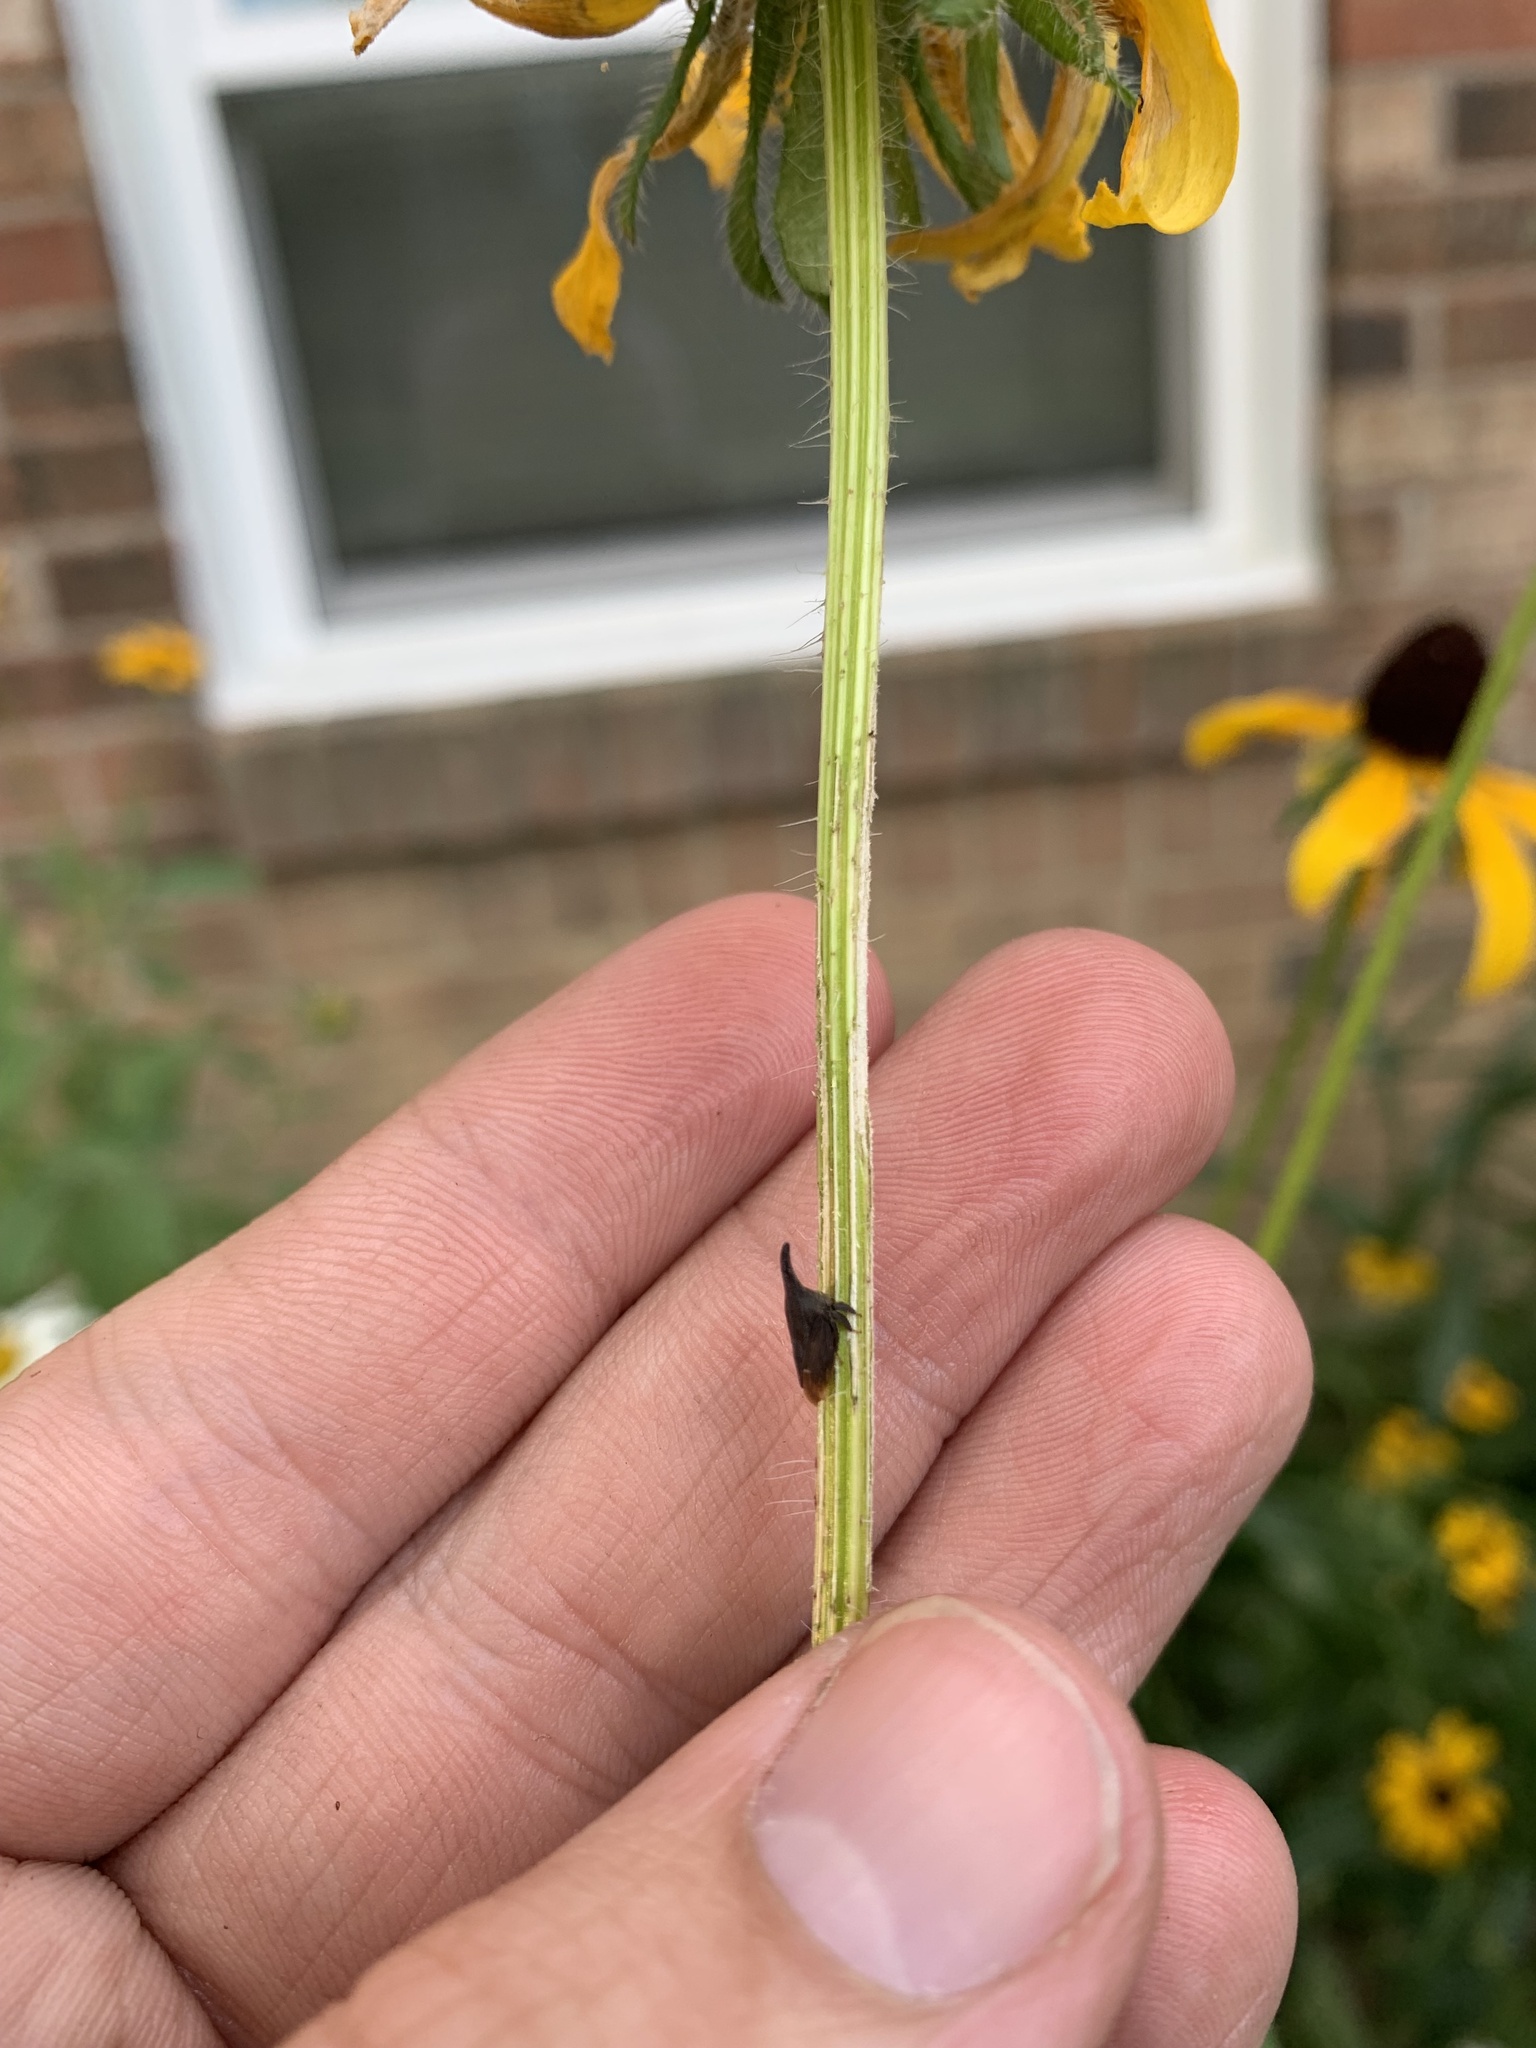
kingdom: Animalia
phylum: Arthropoda
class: Insecta
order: Hemiptera
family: Membracidae
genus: Enchenopa
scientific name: Enchenopa latipes
